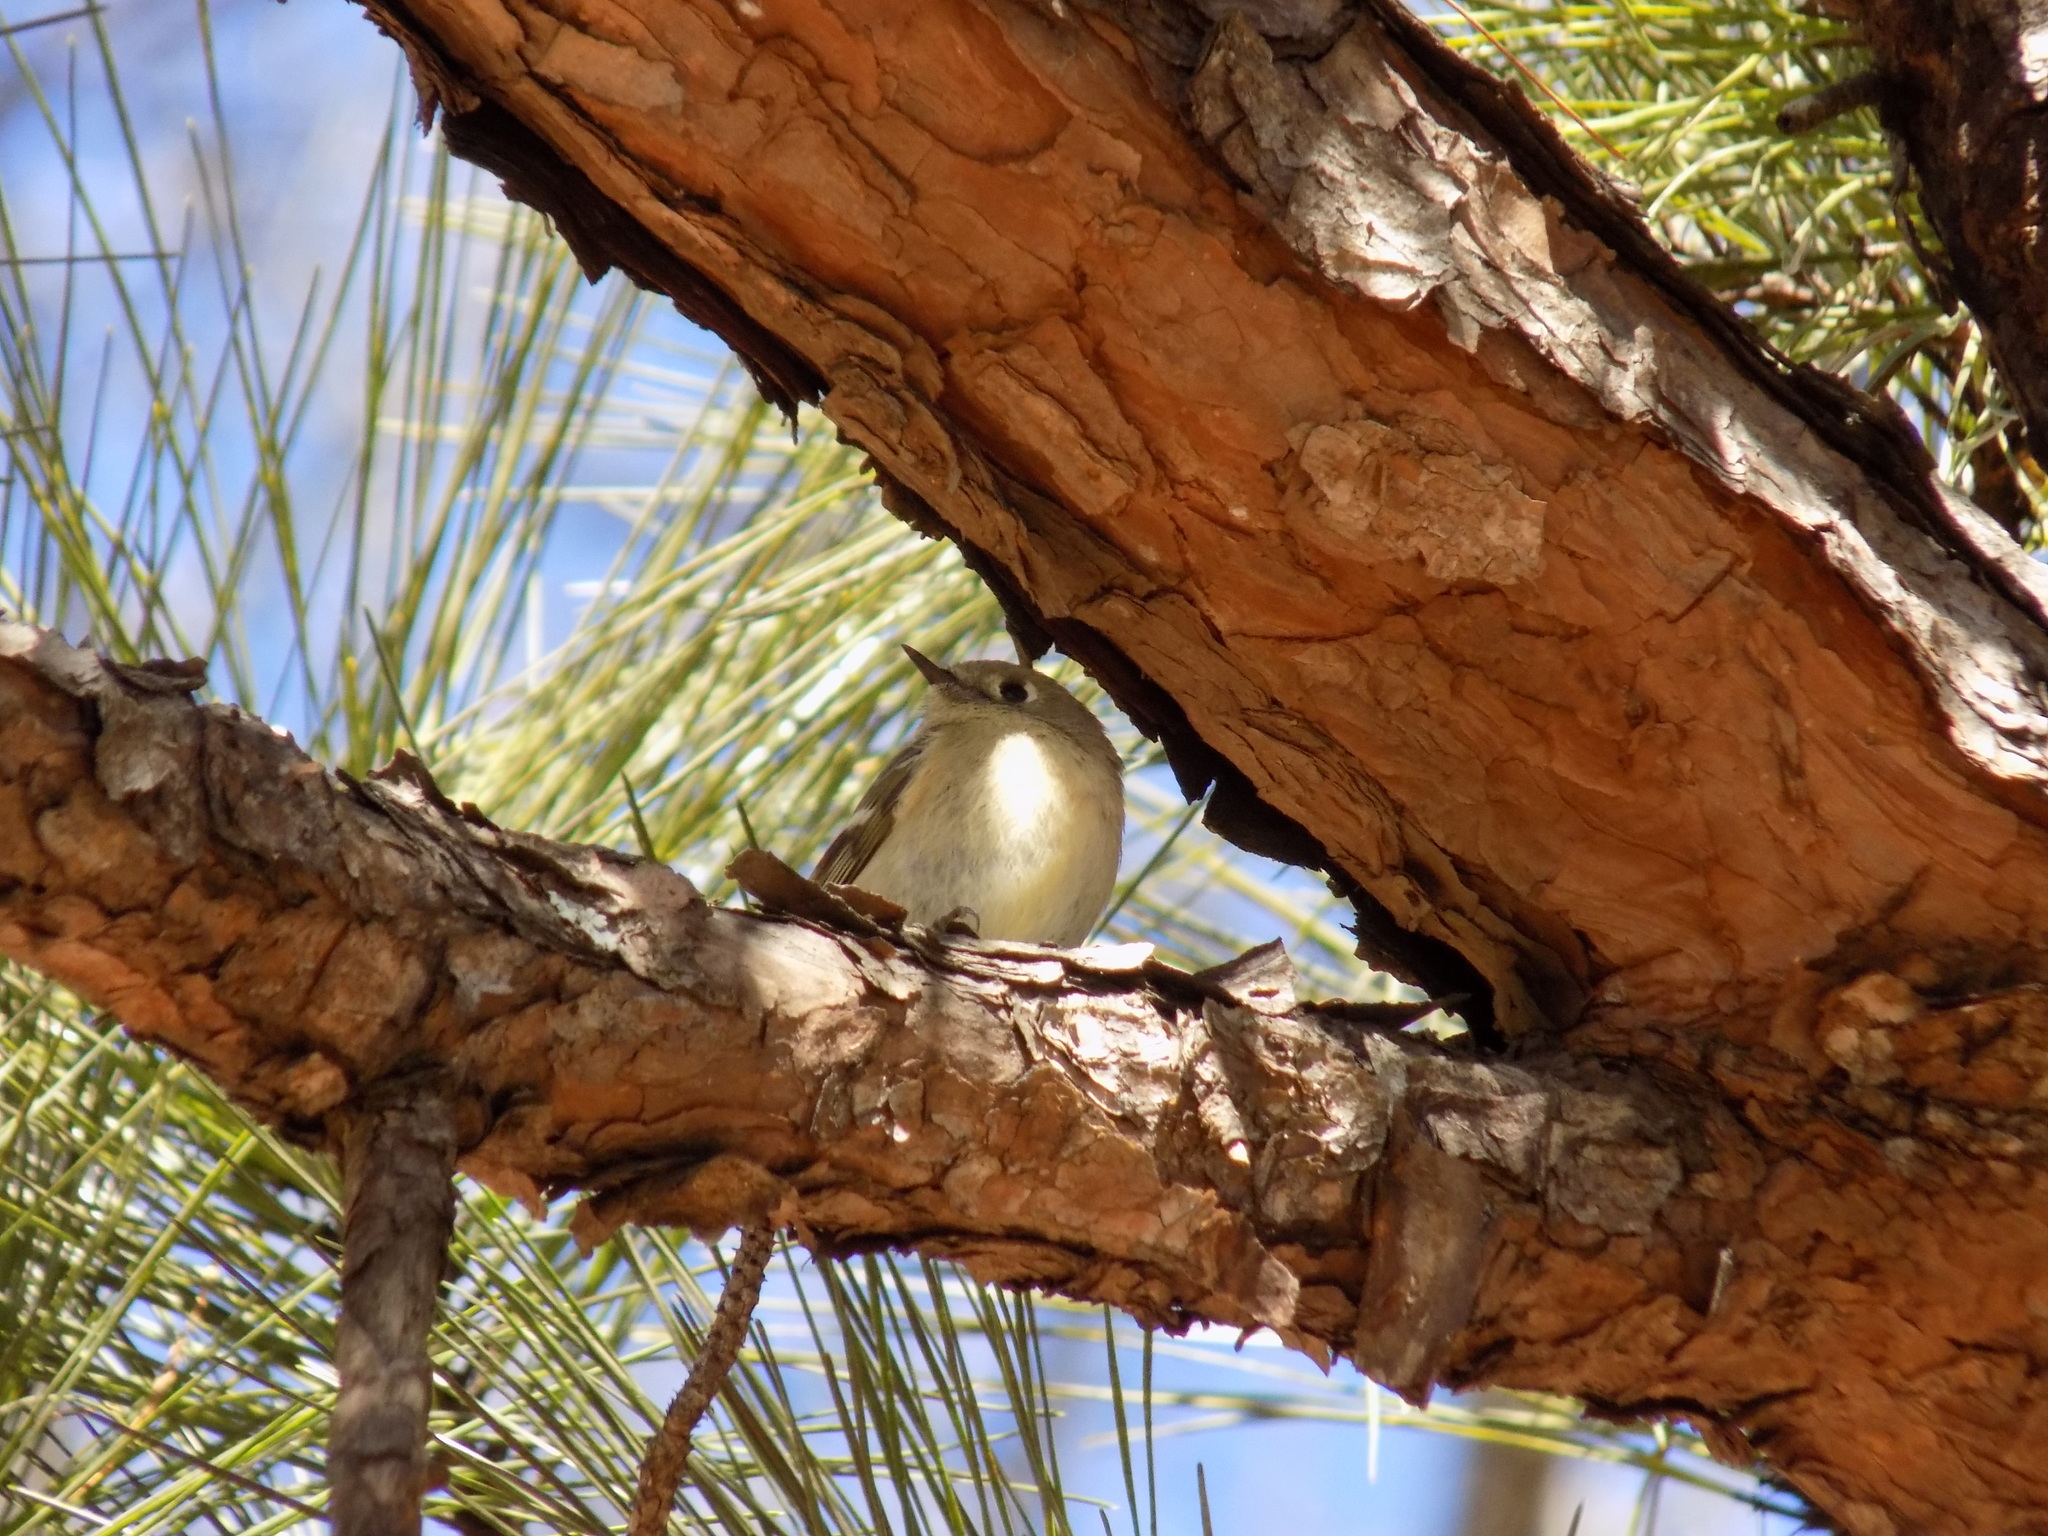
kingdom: Animalia
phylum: Chordata
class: Aves
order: Passeriformes
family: Regulidae
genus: Regulus
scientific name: Regulus calendula
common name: Ruby-crowned kinglet
